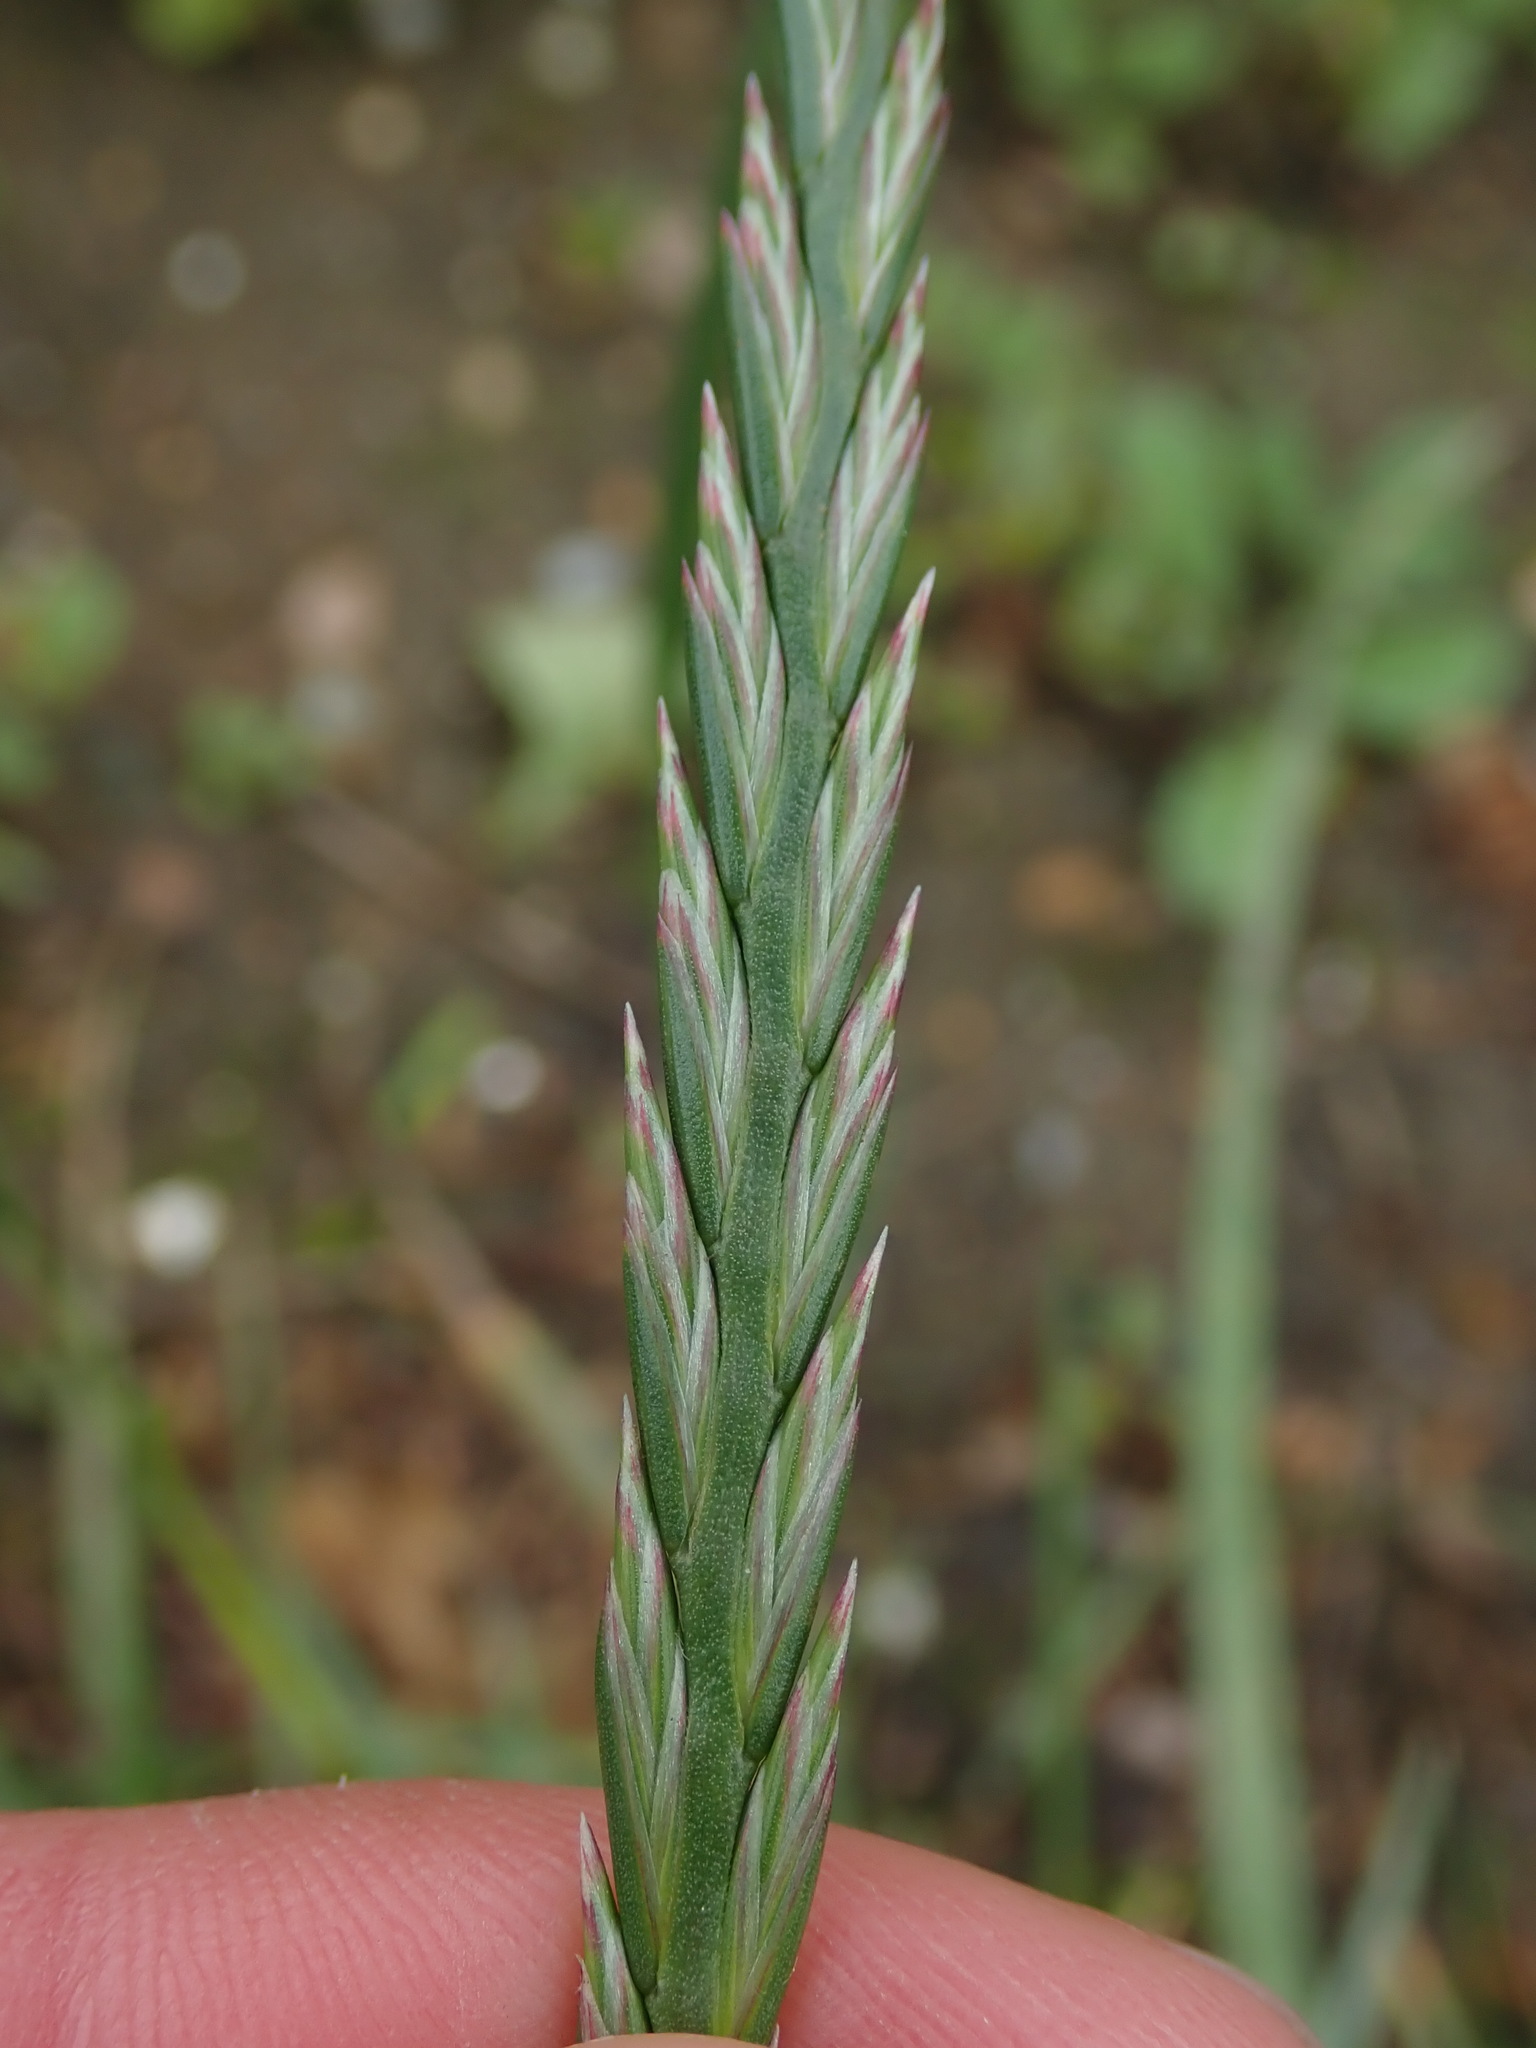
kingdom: Plantae
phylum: Tracheophyta
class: Liliopsida
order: Poales
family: Poaceae
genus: Lolium
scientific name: Lolium perenne
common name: Perennial ryegrass
